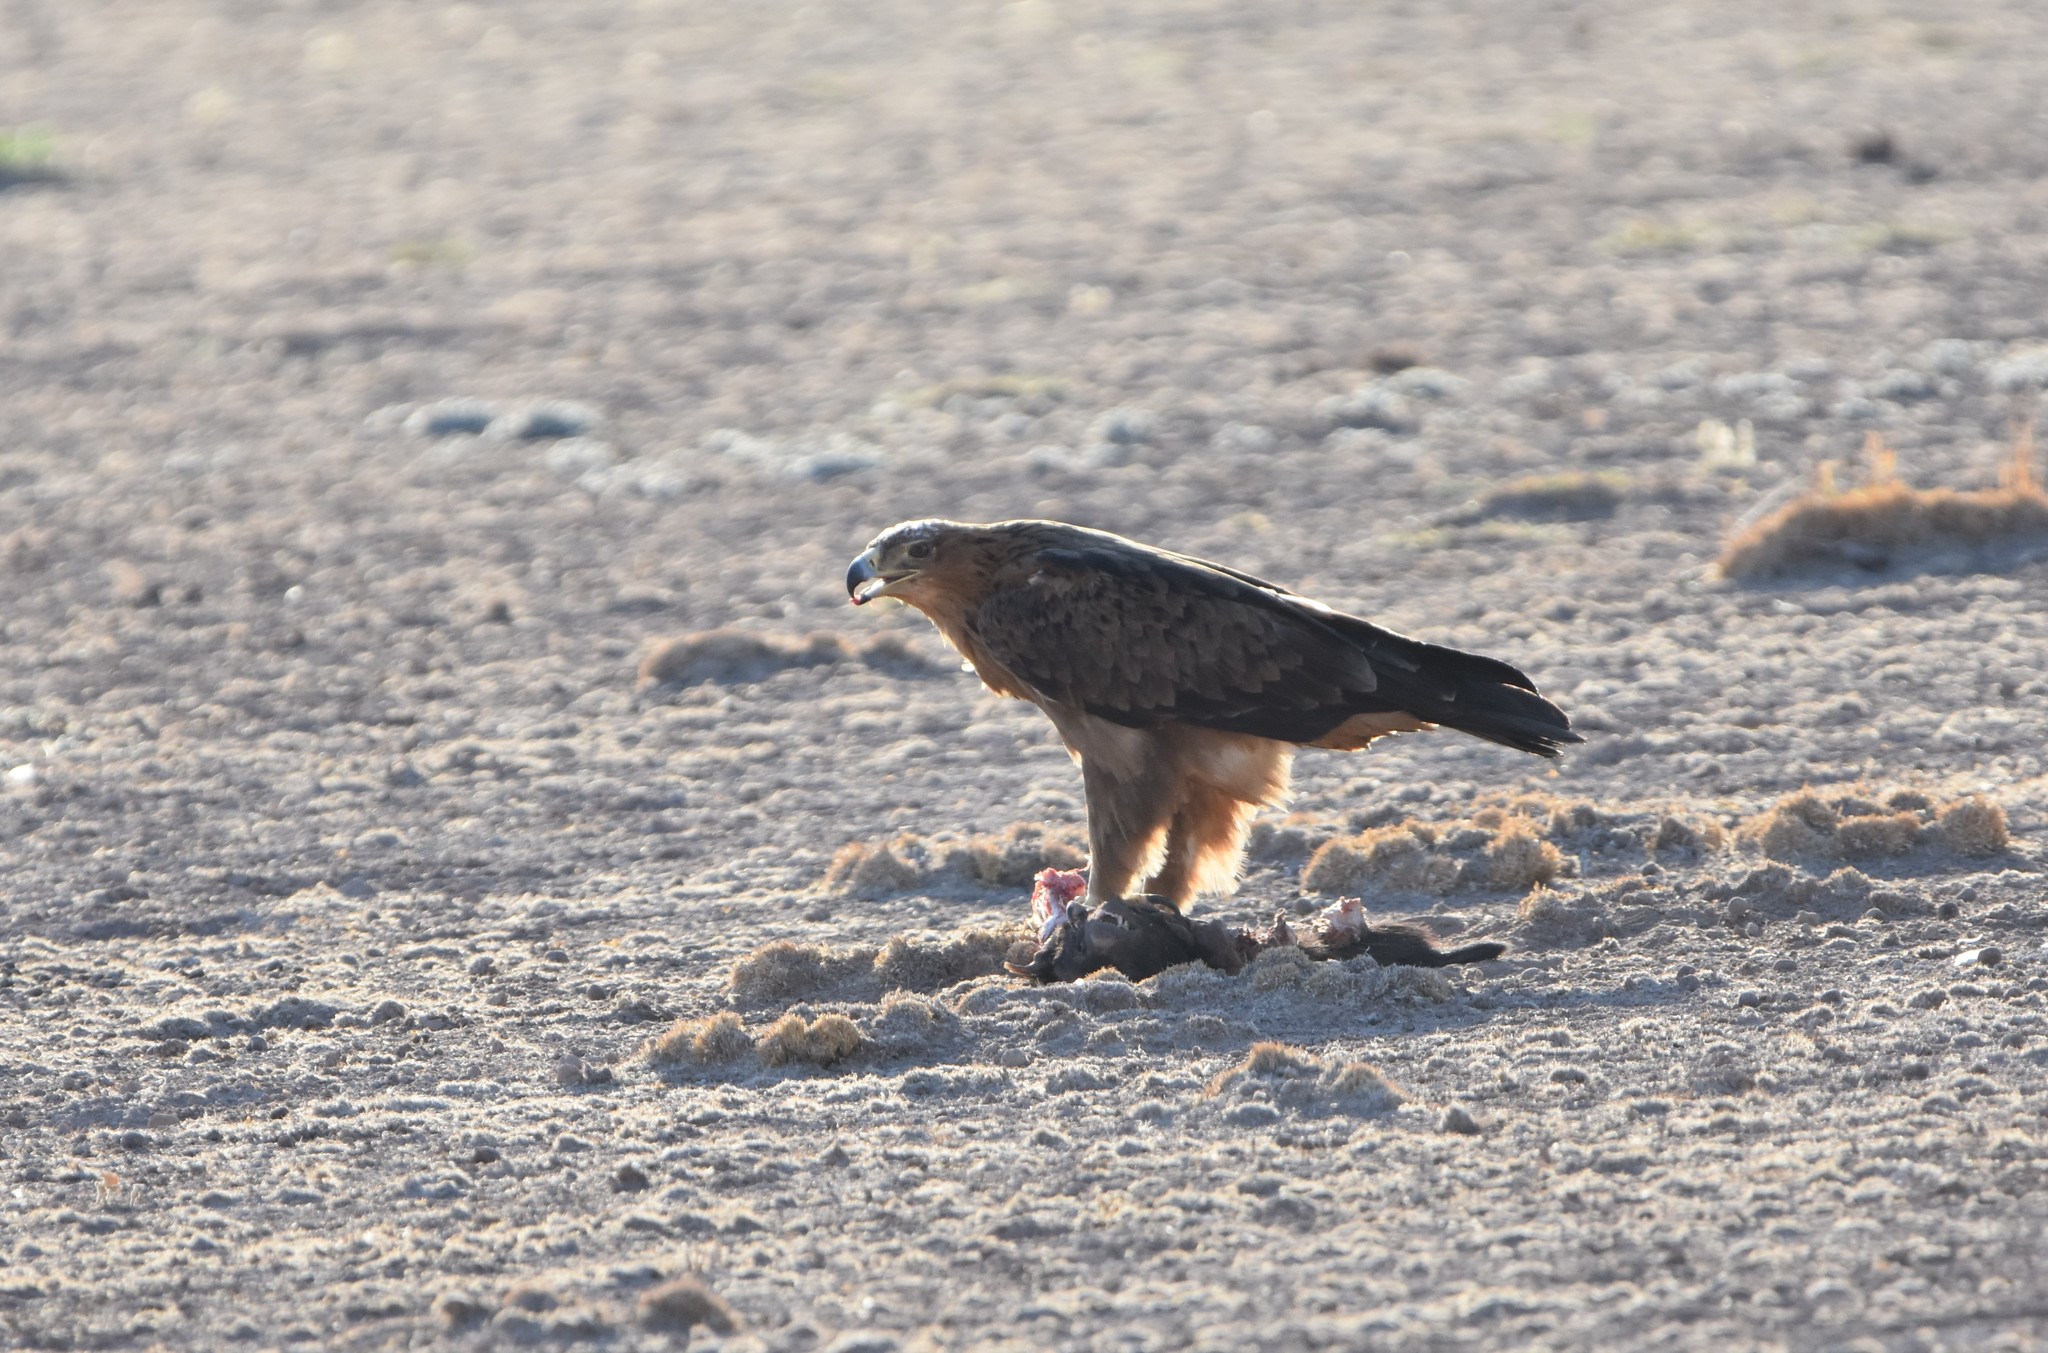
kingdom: Animalia
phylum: Chordata
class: Aves
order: Accipitriformes
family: Accipitridae
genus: Aquila
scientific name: Aquila rapax
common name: Tawny eagle
